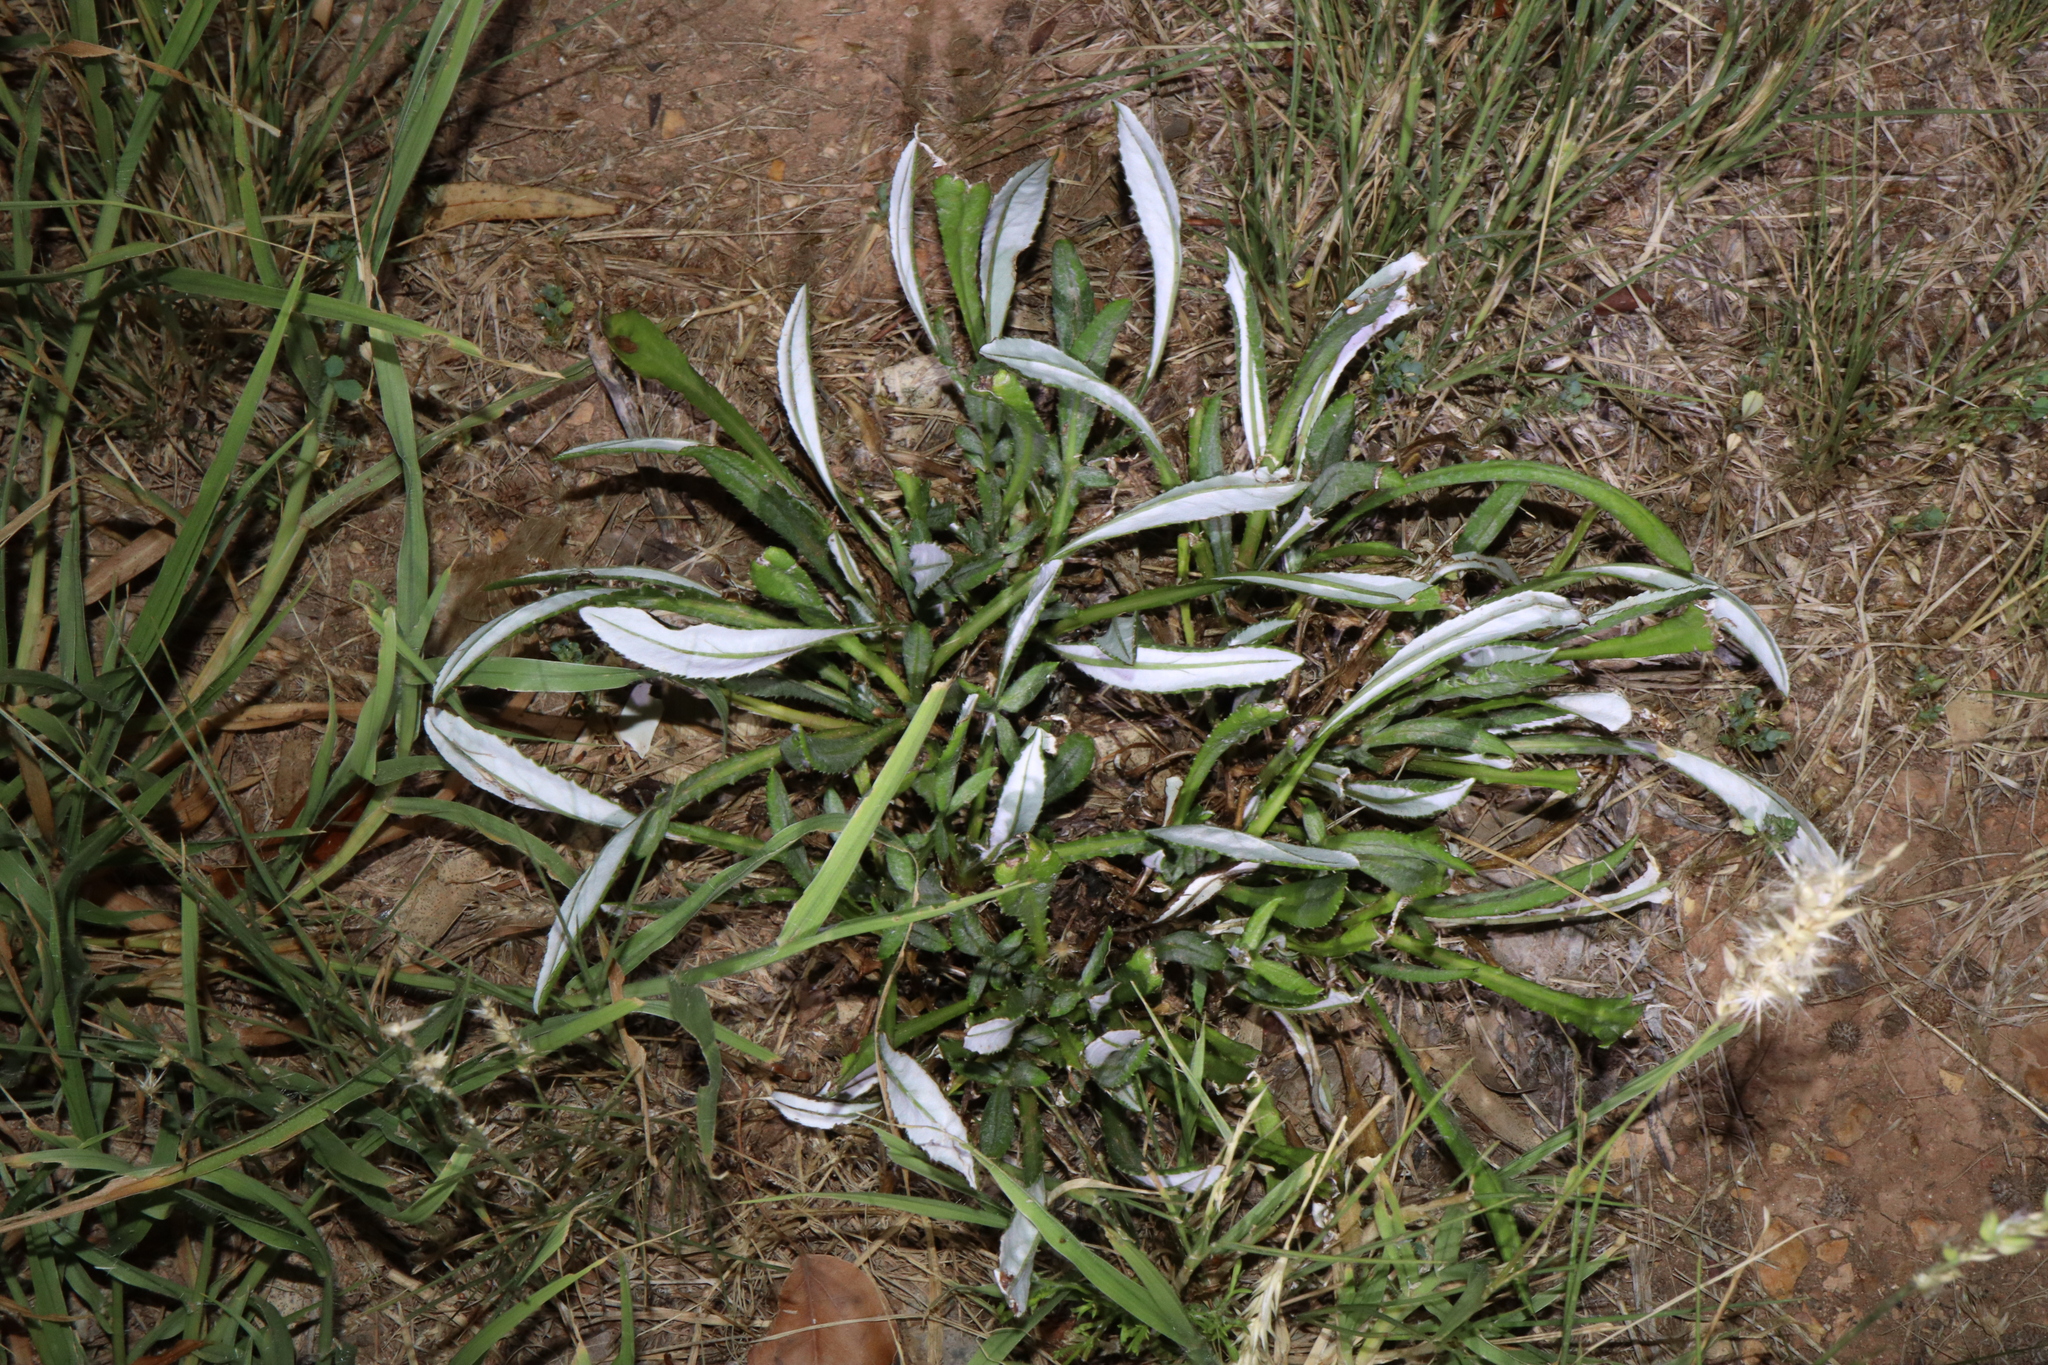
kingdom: Plantae
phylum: Tracheophyta
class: Magnoliopsida
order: Asterales
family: Asteraceae
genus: Gazania
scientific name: Gazania splendens
